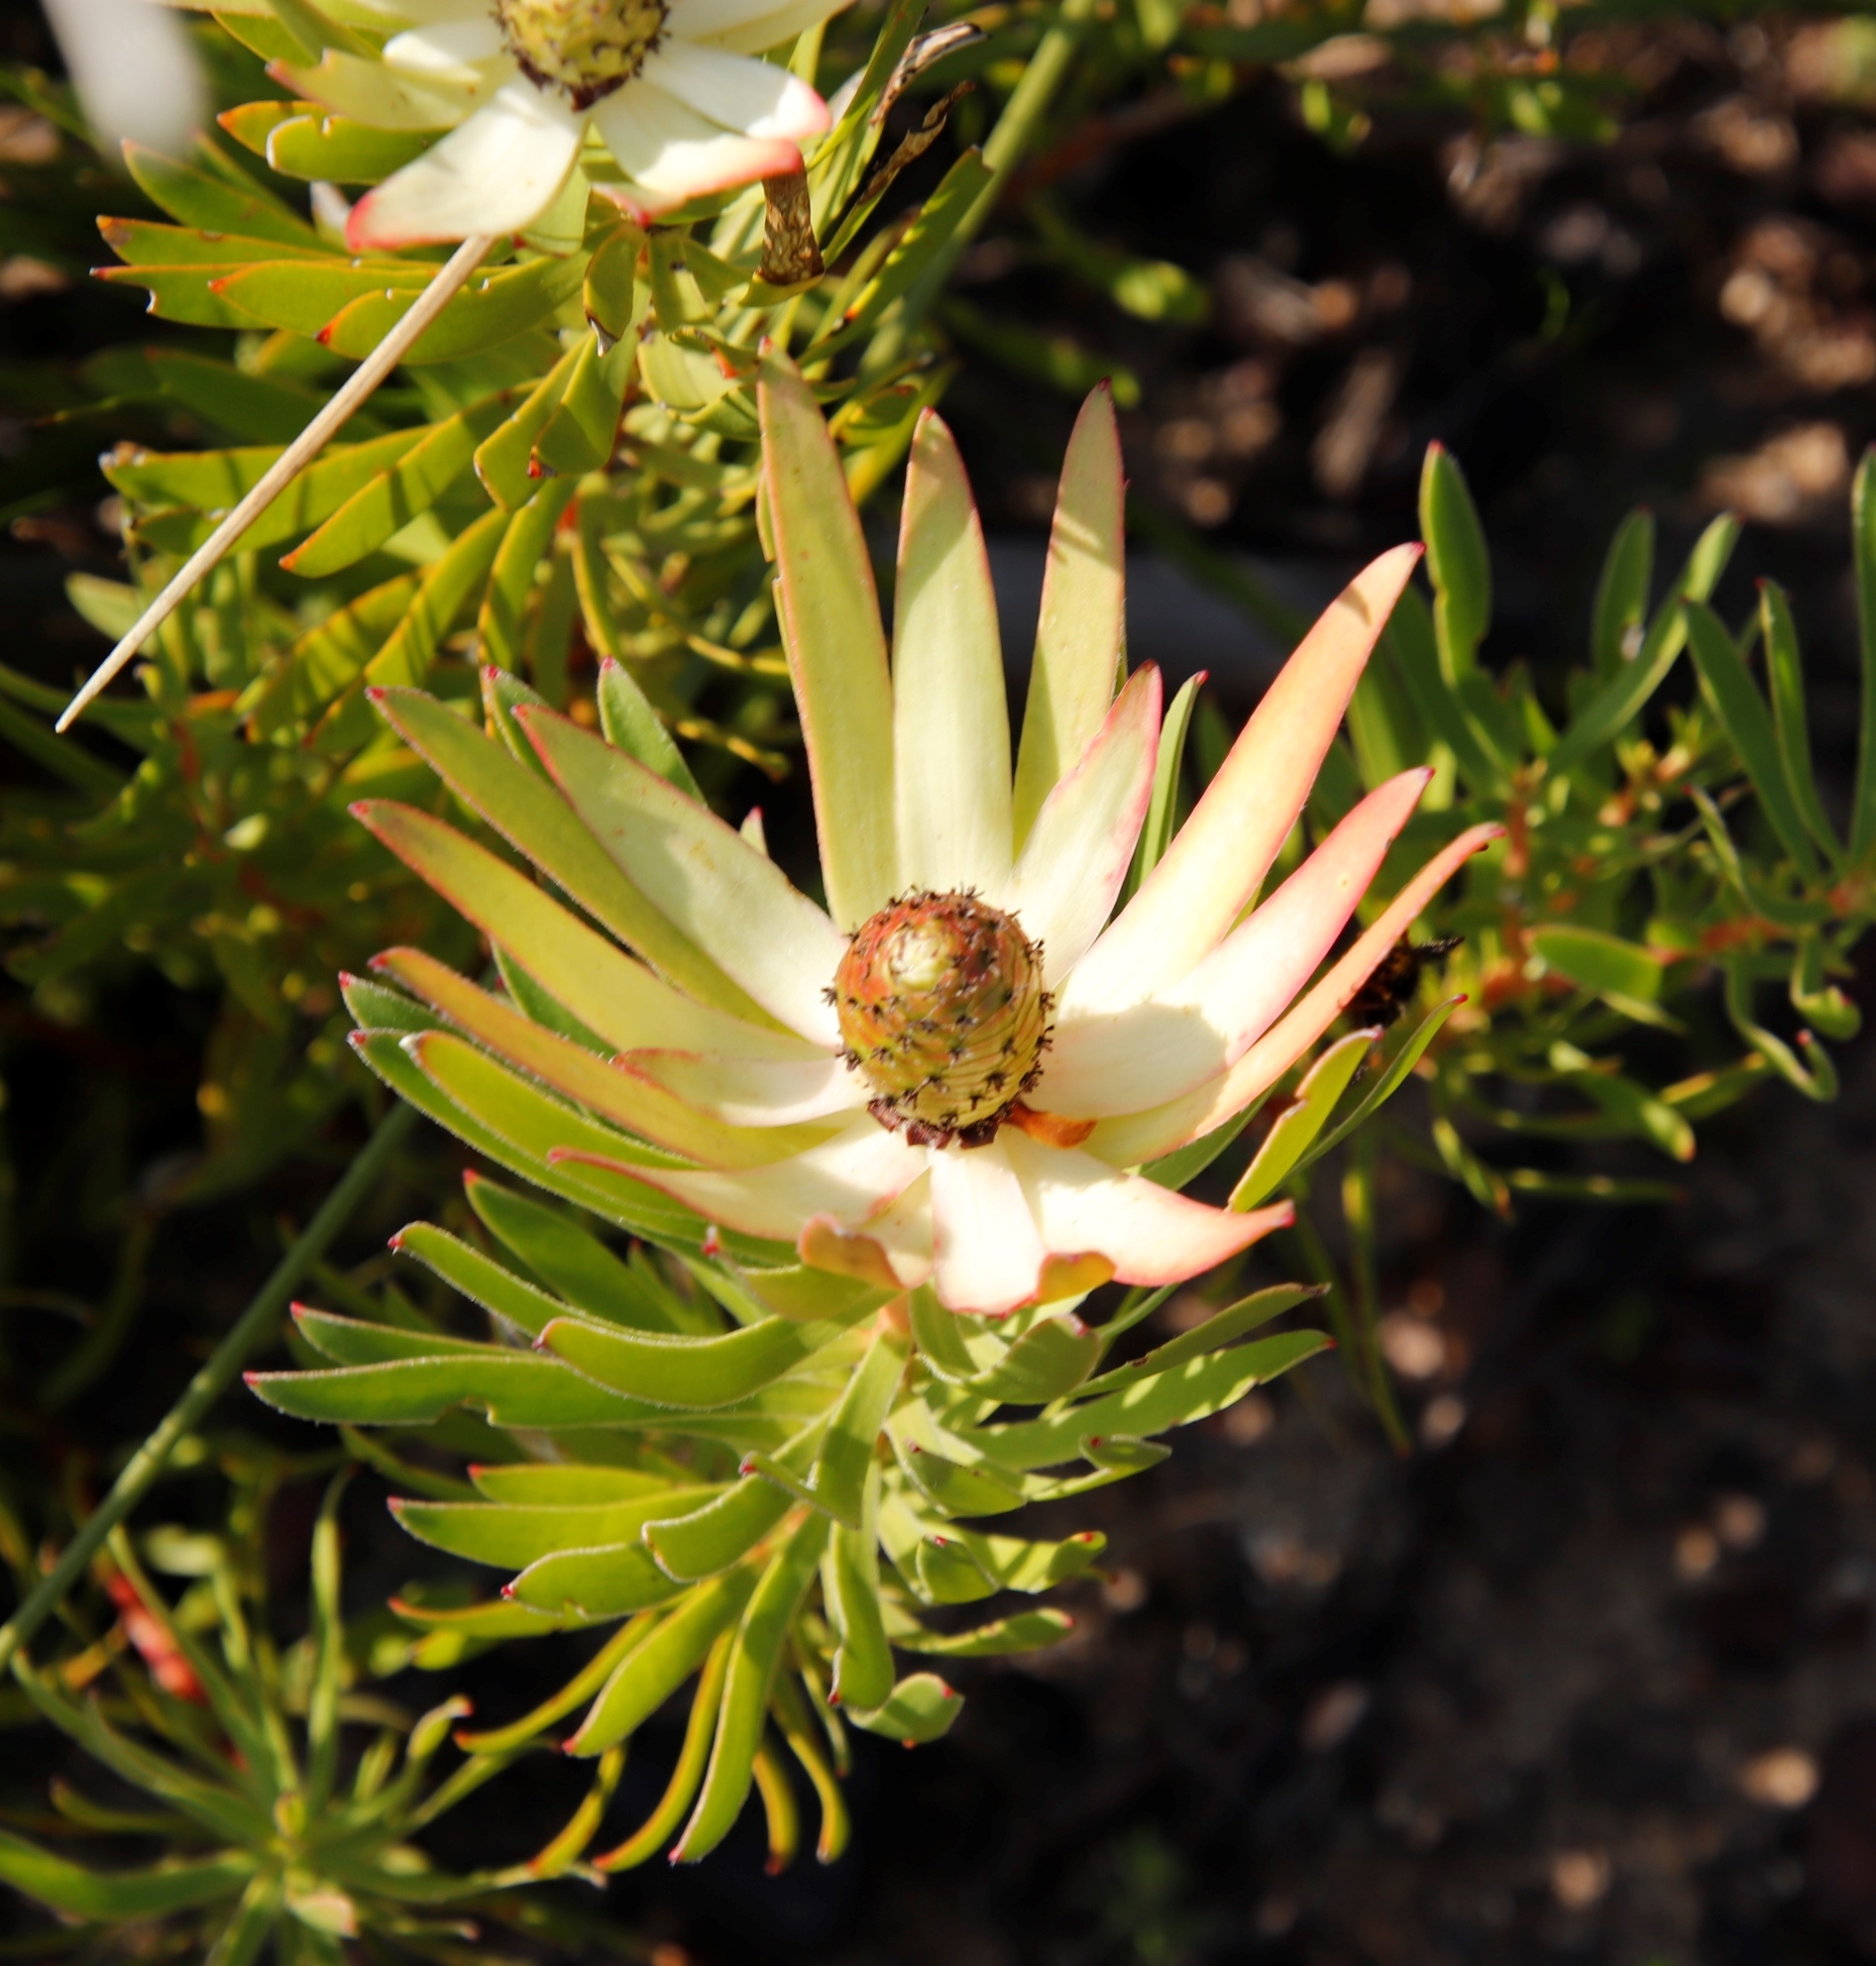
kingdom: Plantae
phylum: Tracheophyta
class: Magnoliopsida
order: Proteales
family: Proteaceae
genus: Leucadendron
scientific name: Leucadendron spissifolium
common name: Spear-leaf conebush
